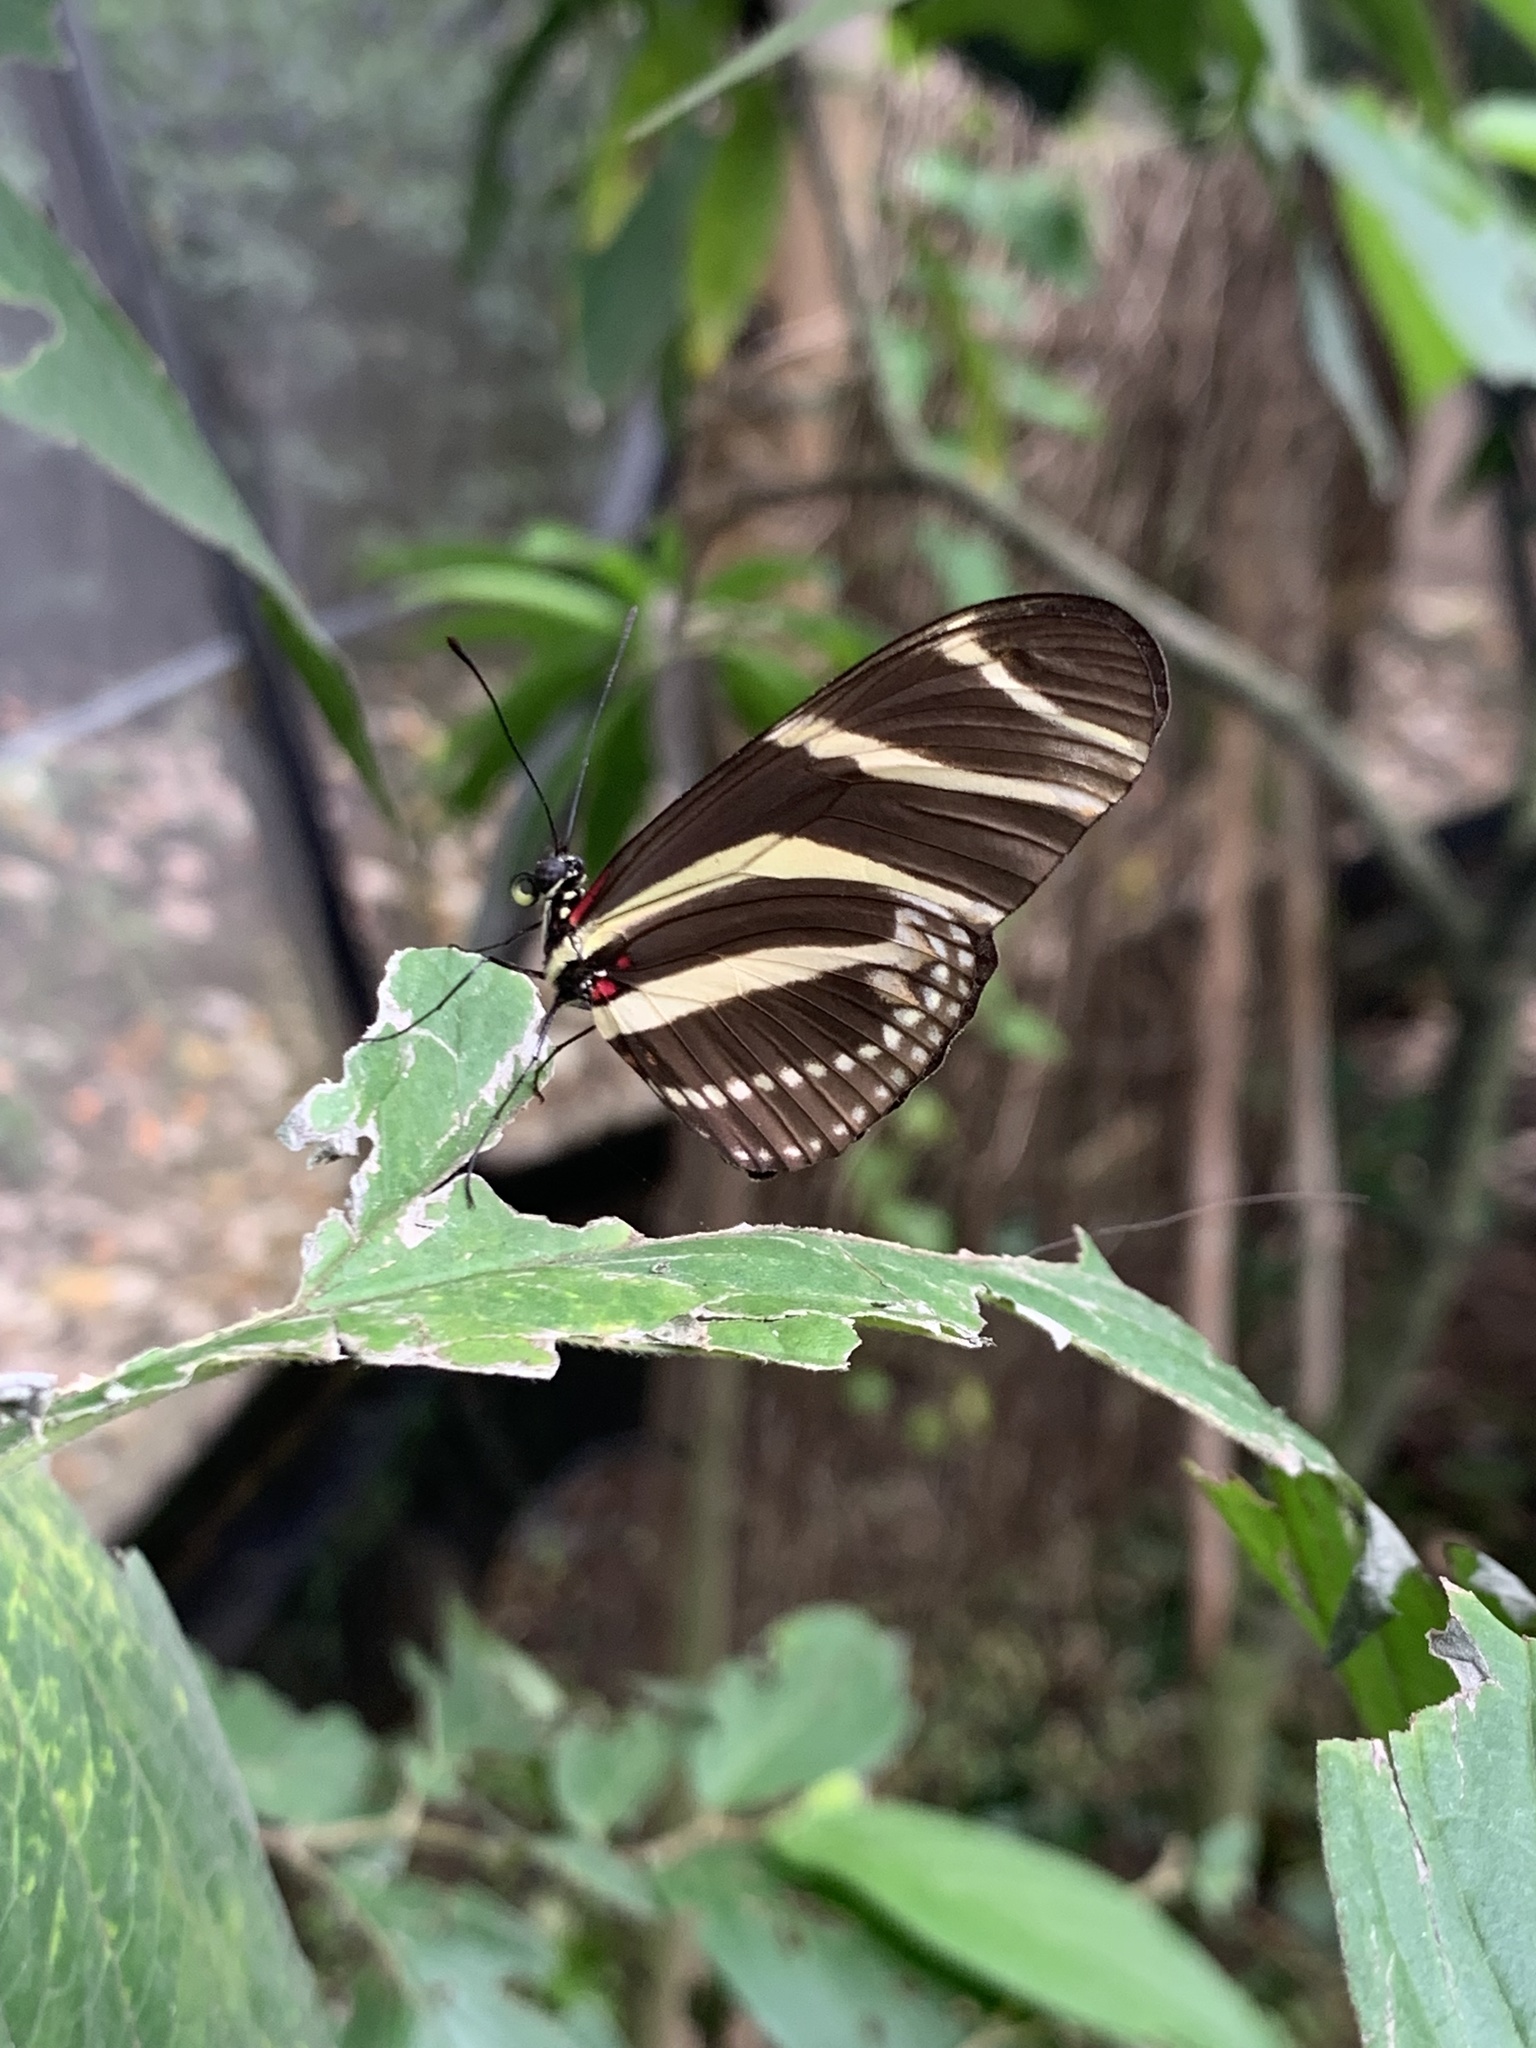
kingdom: Animalia
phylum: Arthropoda
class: Insecta
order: Lepidoptera
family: Nymphalidae
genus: Heliconius
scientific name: Heliconius charithonia
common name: Zebra long wing
